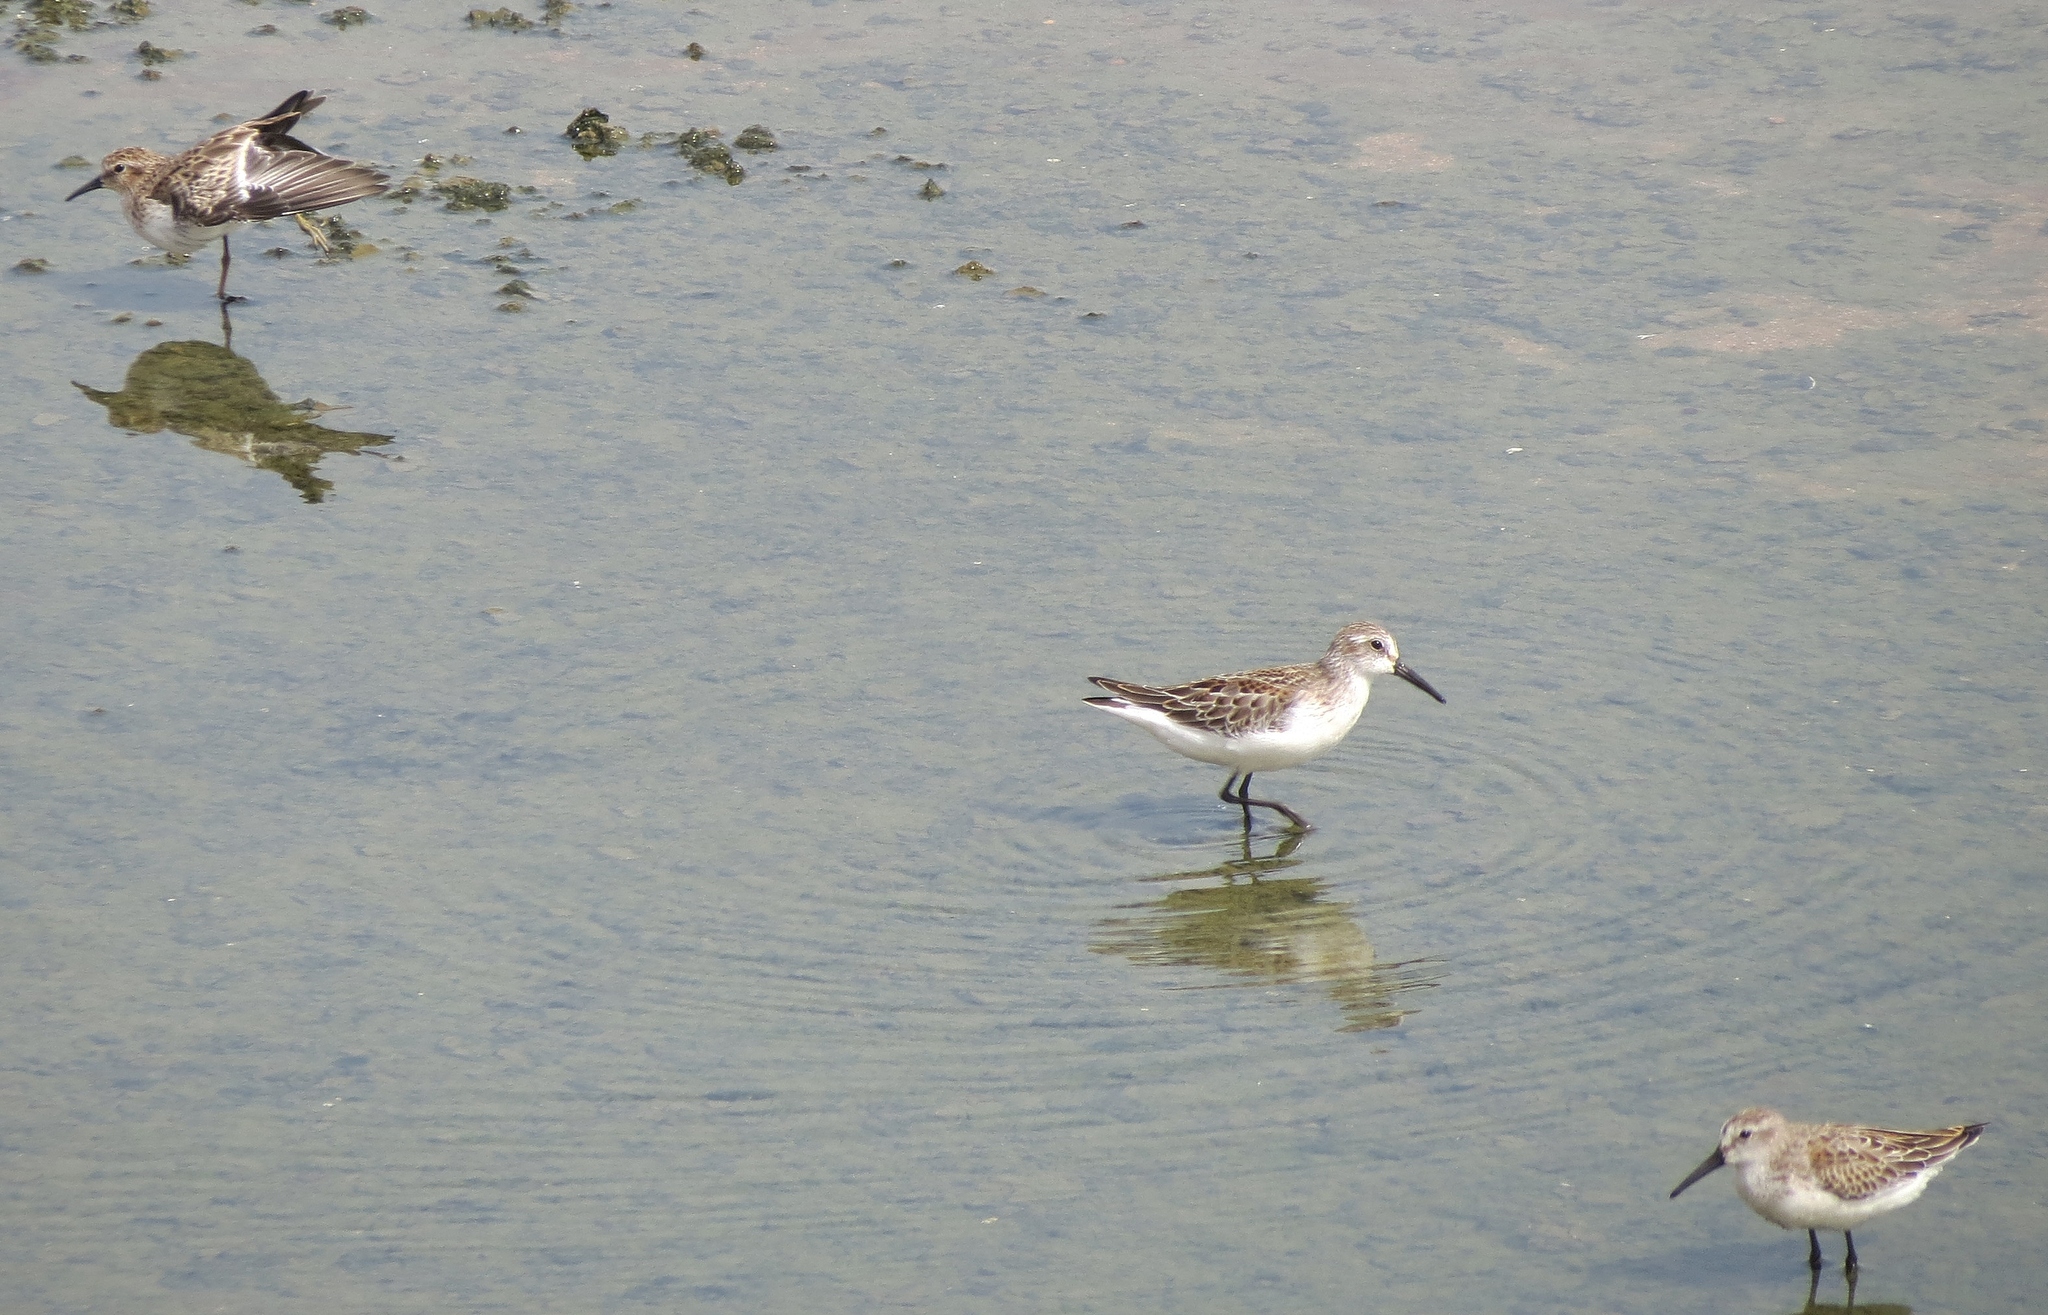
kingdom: Animalia
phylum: Chordata
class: Aves
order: Charadriiformes
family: Scolopacidae
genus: Calidris
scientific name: Calidris mauri
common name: Western sandpiper
